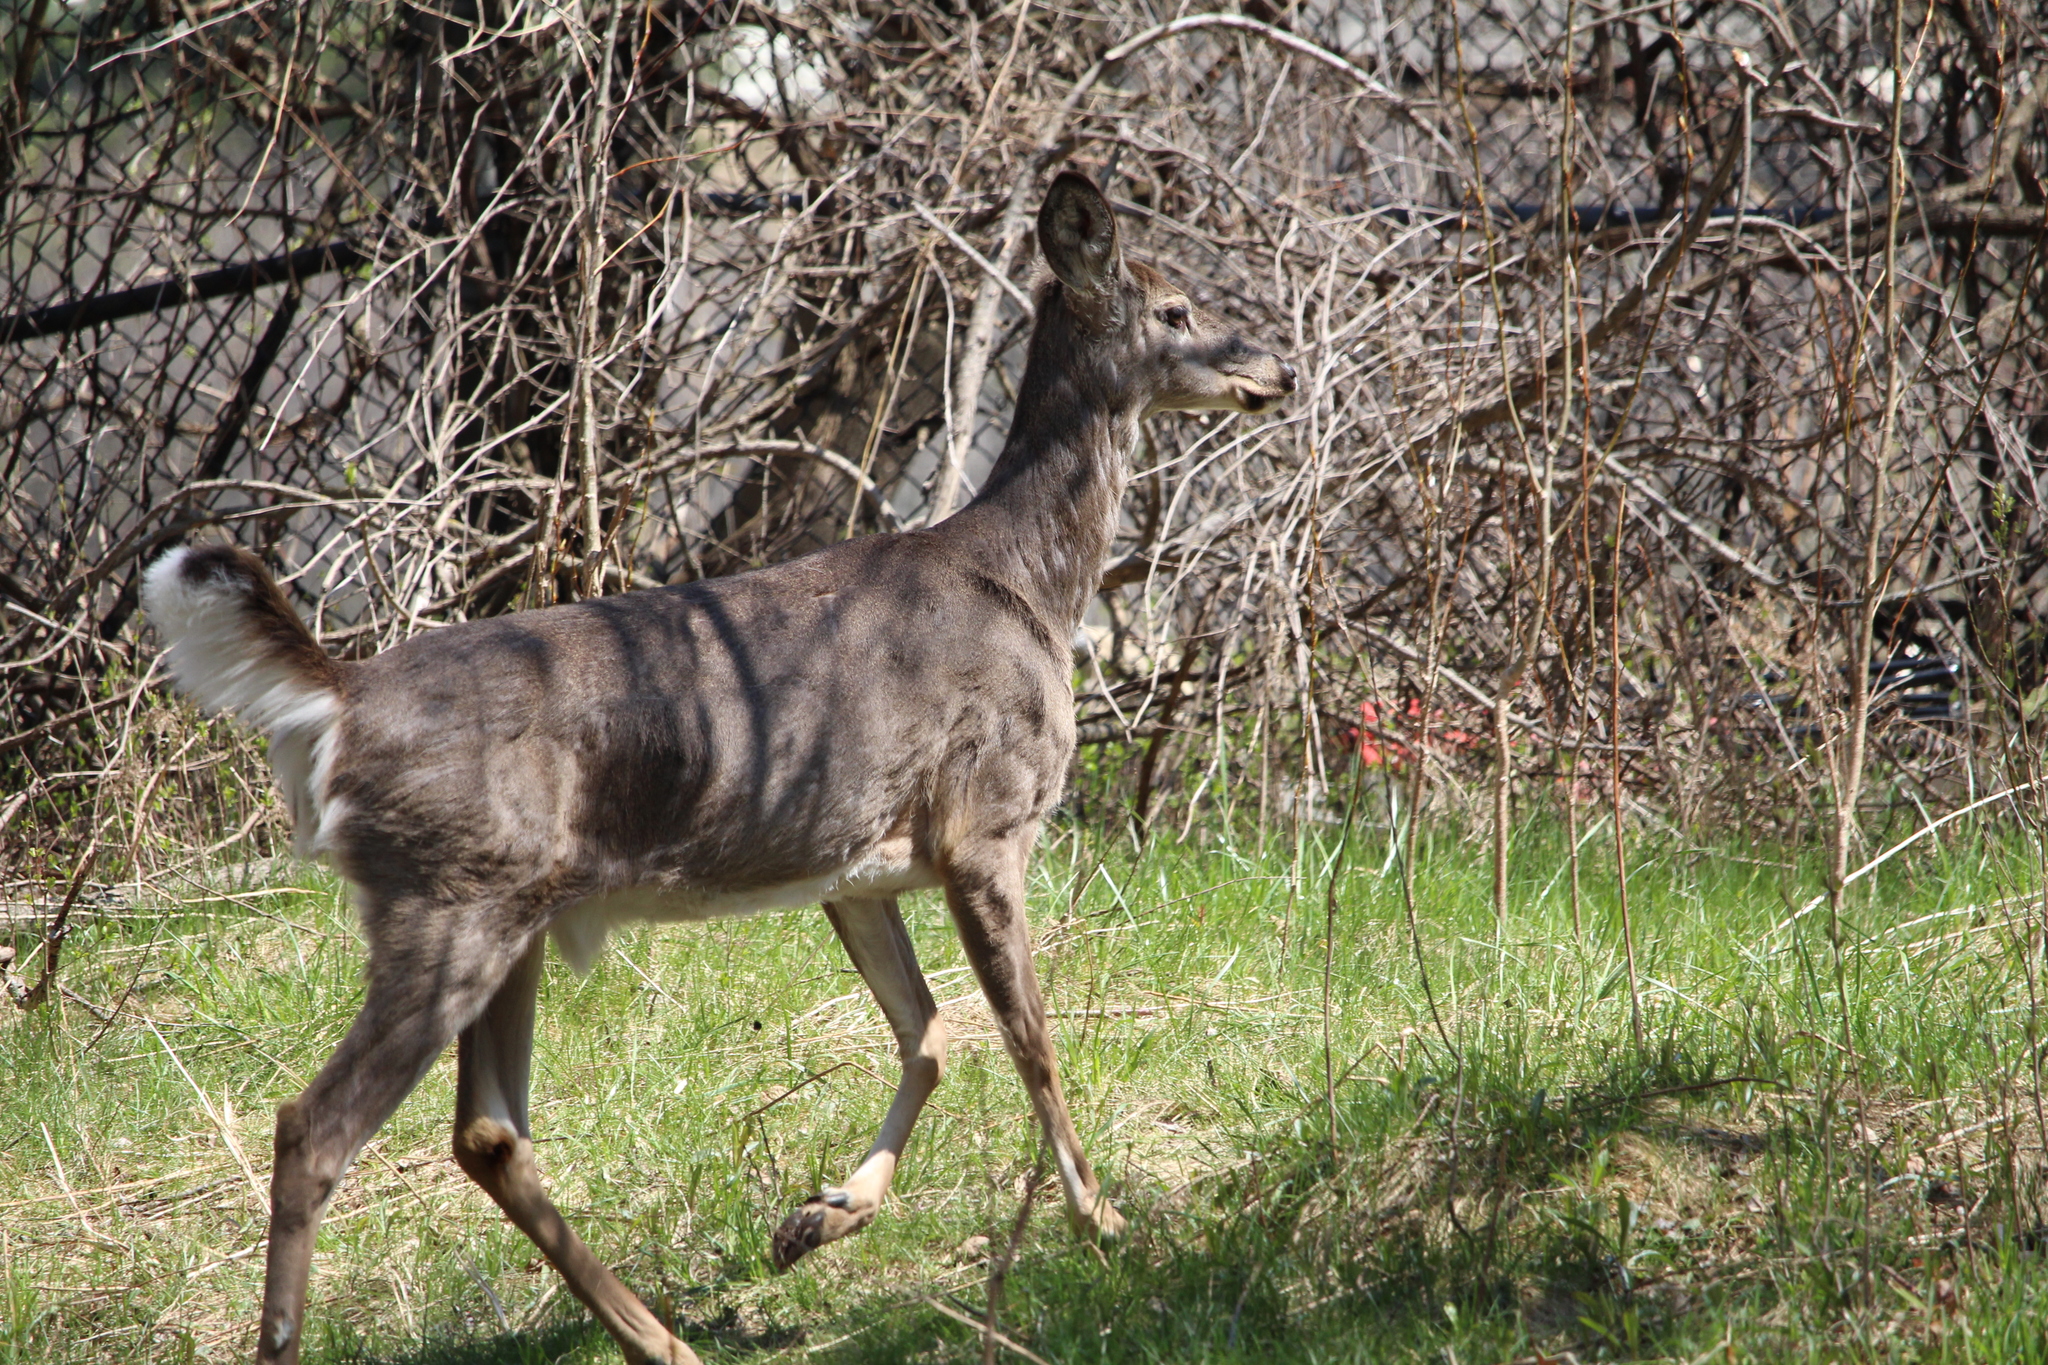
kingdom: Animalia
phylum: Chordata
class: Mammalia
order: Artiodactyla
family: Cervidae
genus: Odocoileus
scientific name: Odocoileus virginianus
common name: White-tailed deer
